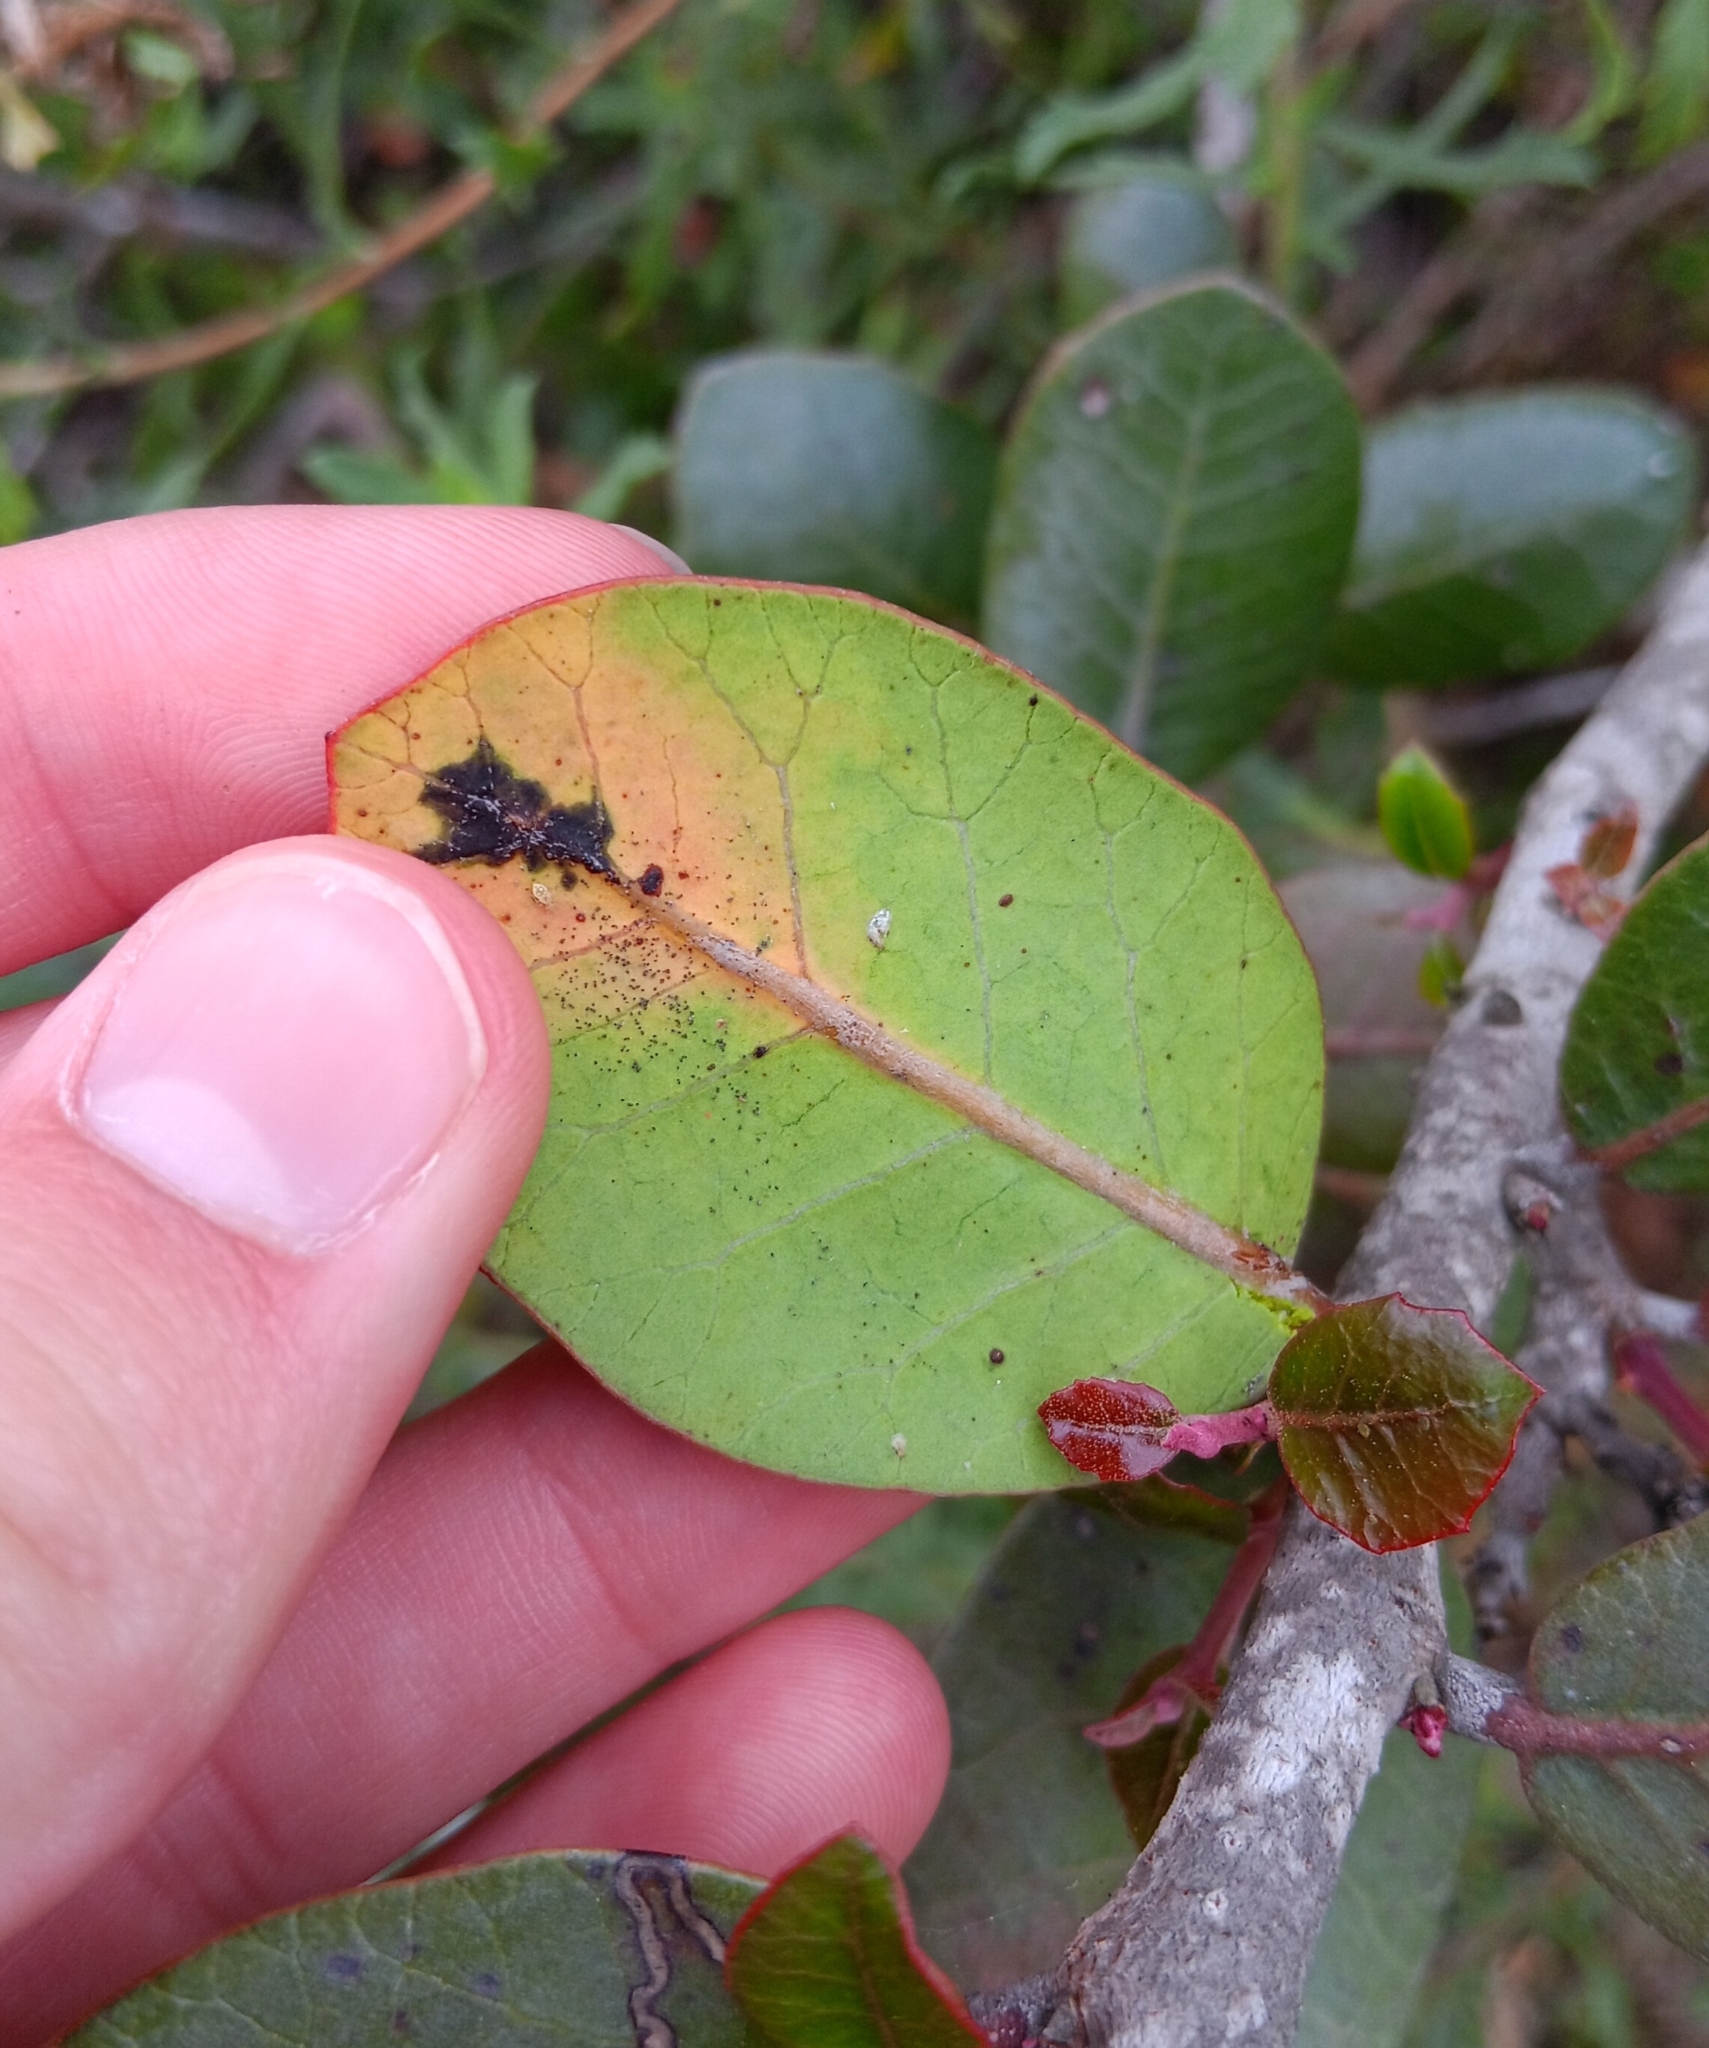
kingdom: Plantae
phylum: Tracheophyta
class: Magnoliopsida
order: Sapindales
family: Anacardiaceae
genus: Rhus
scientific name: Rhus integrifolia
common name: Lemonade sumac
